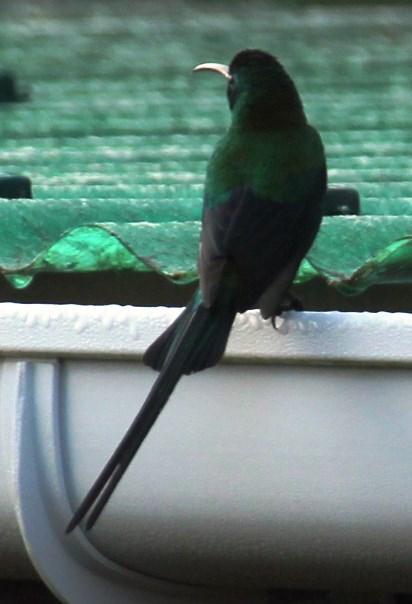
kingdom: Animalia
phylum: Chordata
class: Aves
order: Passeriformes
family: Nectariniidae
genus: Nectarinia
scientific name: Nectarinia famosa
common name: Malachite sunbird
